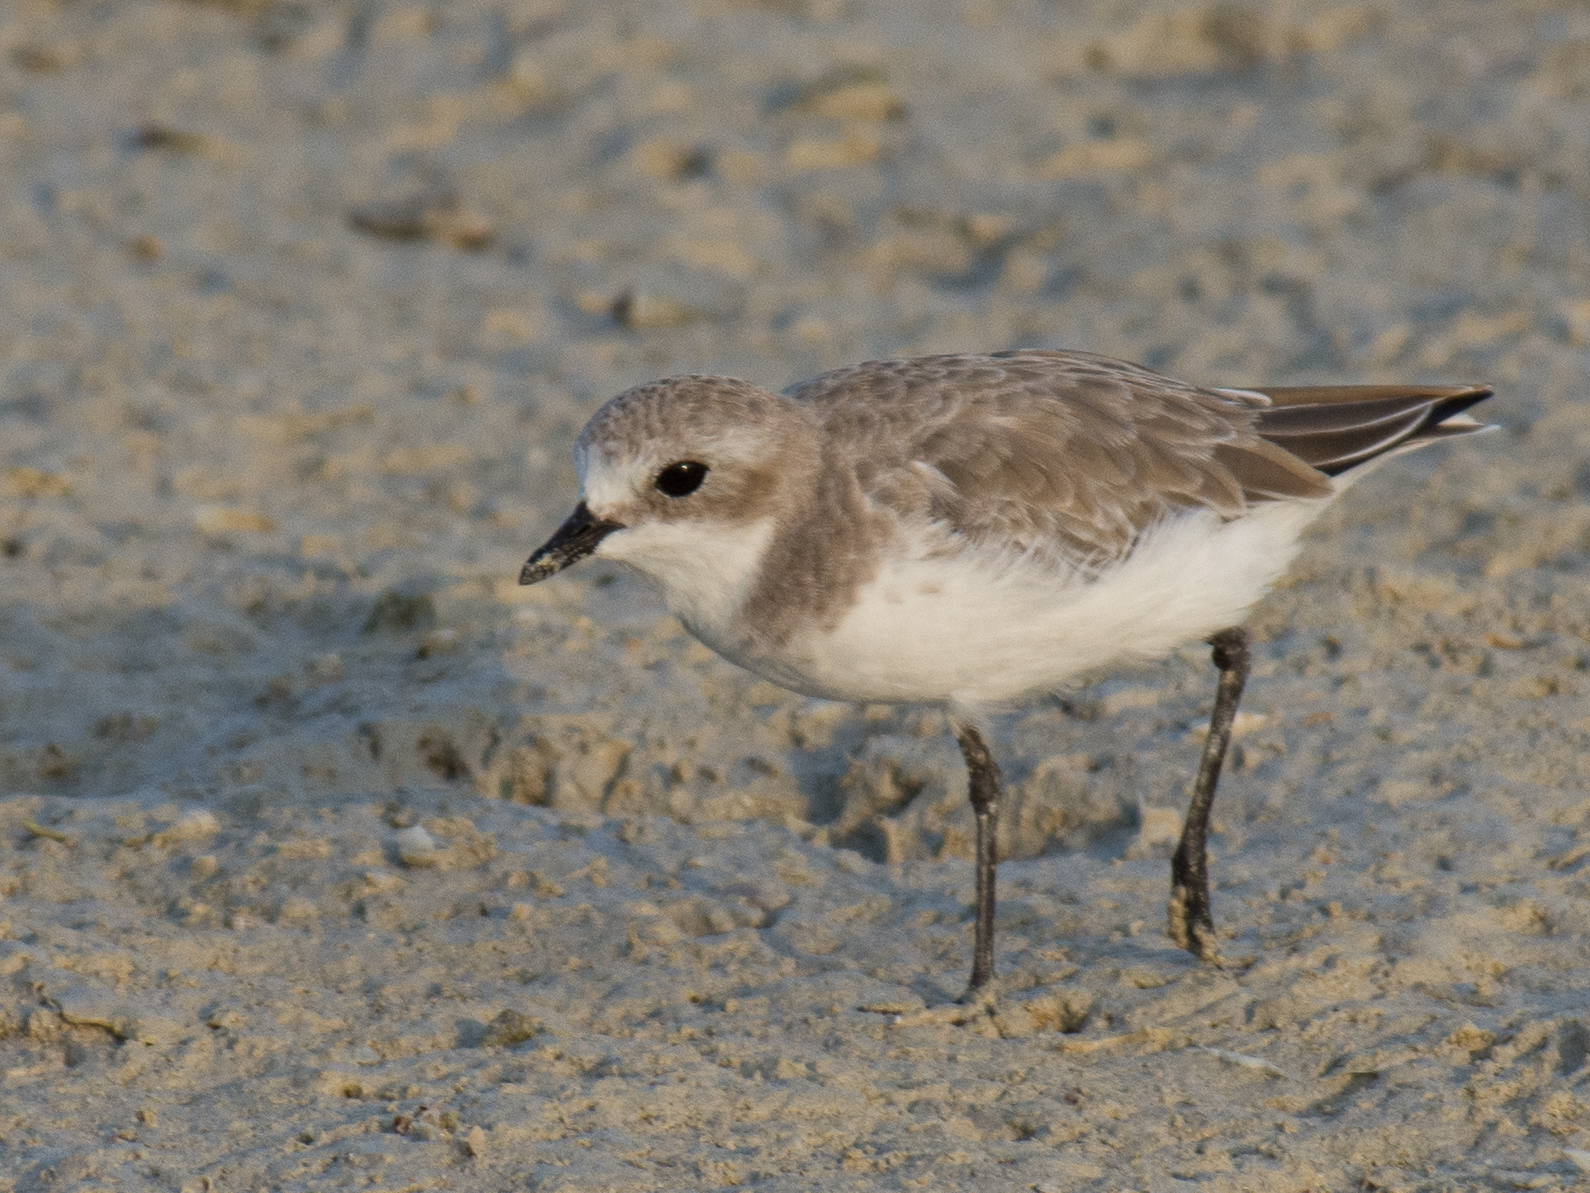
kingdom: Animalia
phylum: Chordata
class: Aves
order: Charadriiformes
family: Charadriidae
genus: Anarhynchus
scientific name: Anarhynchus
